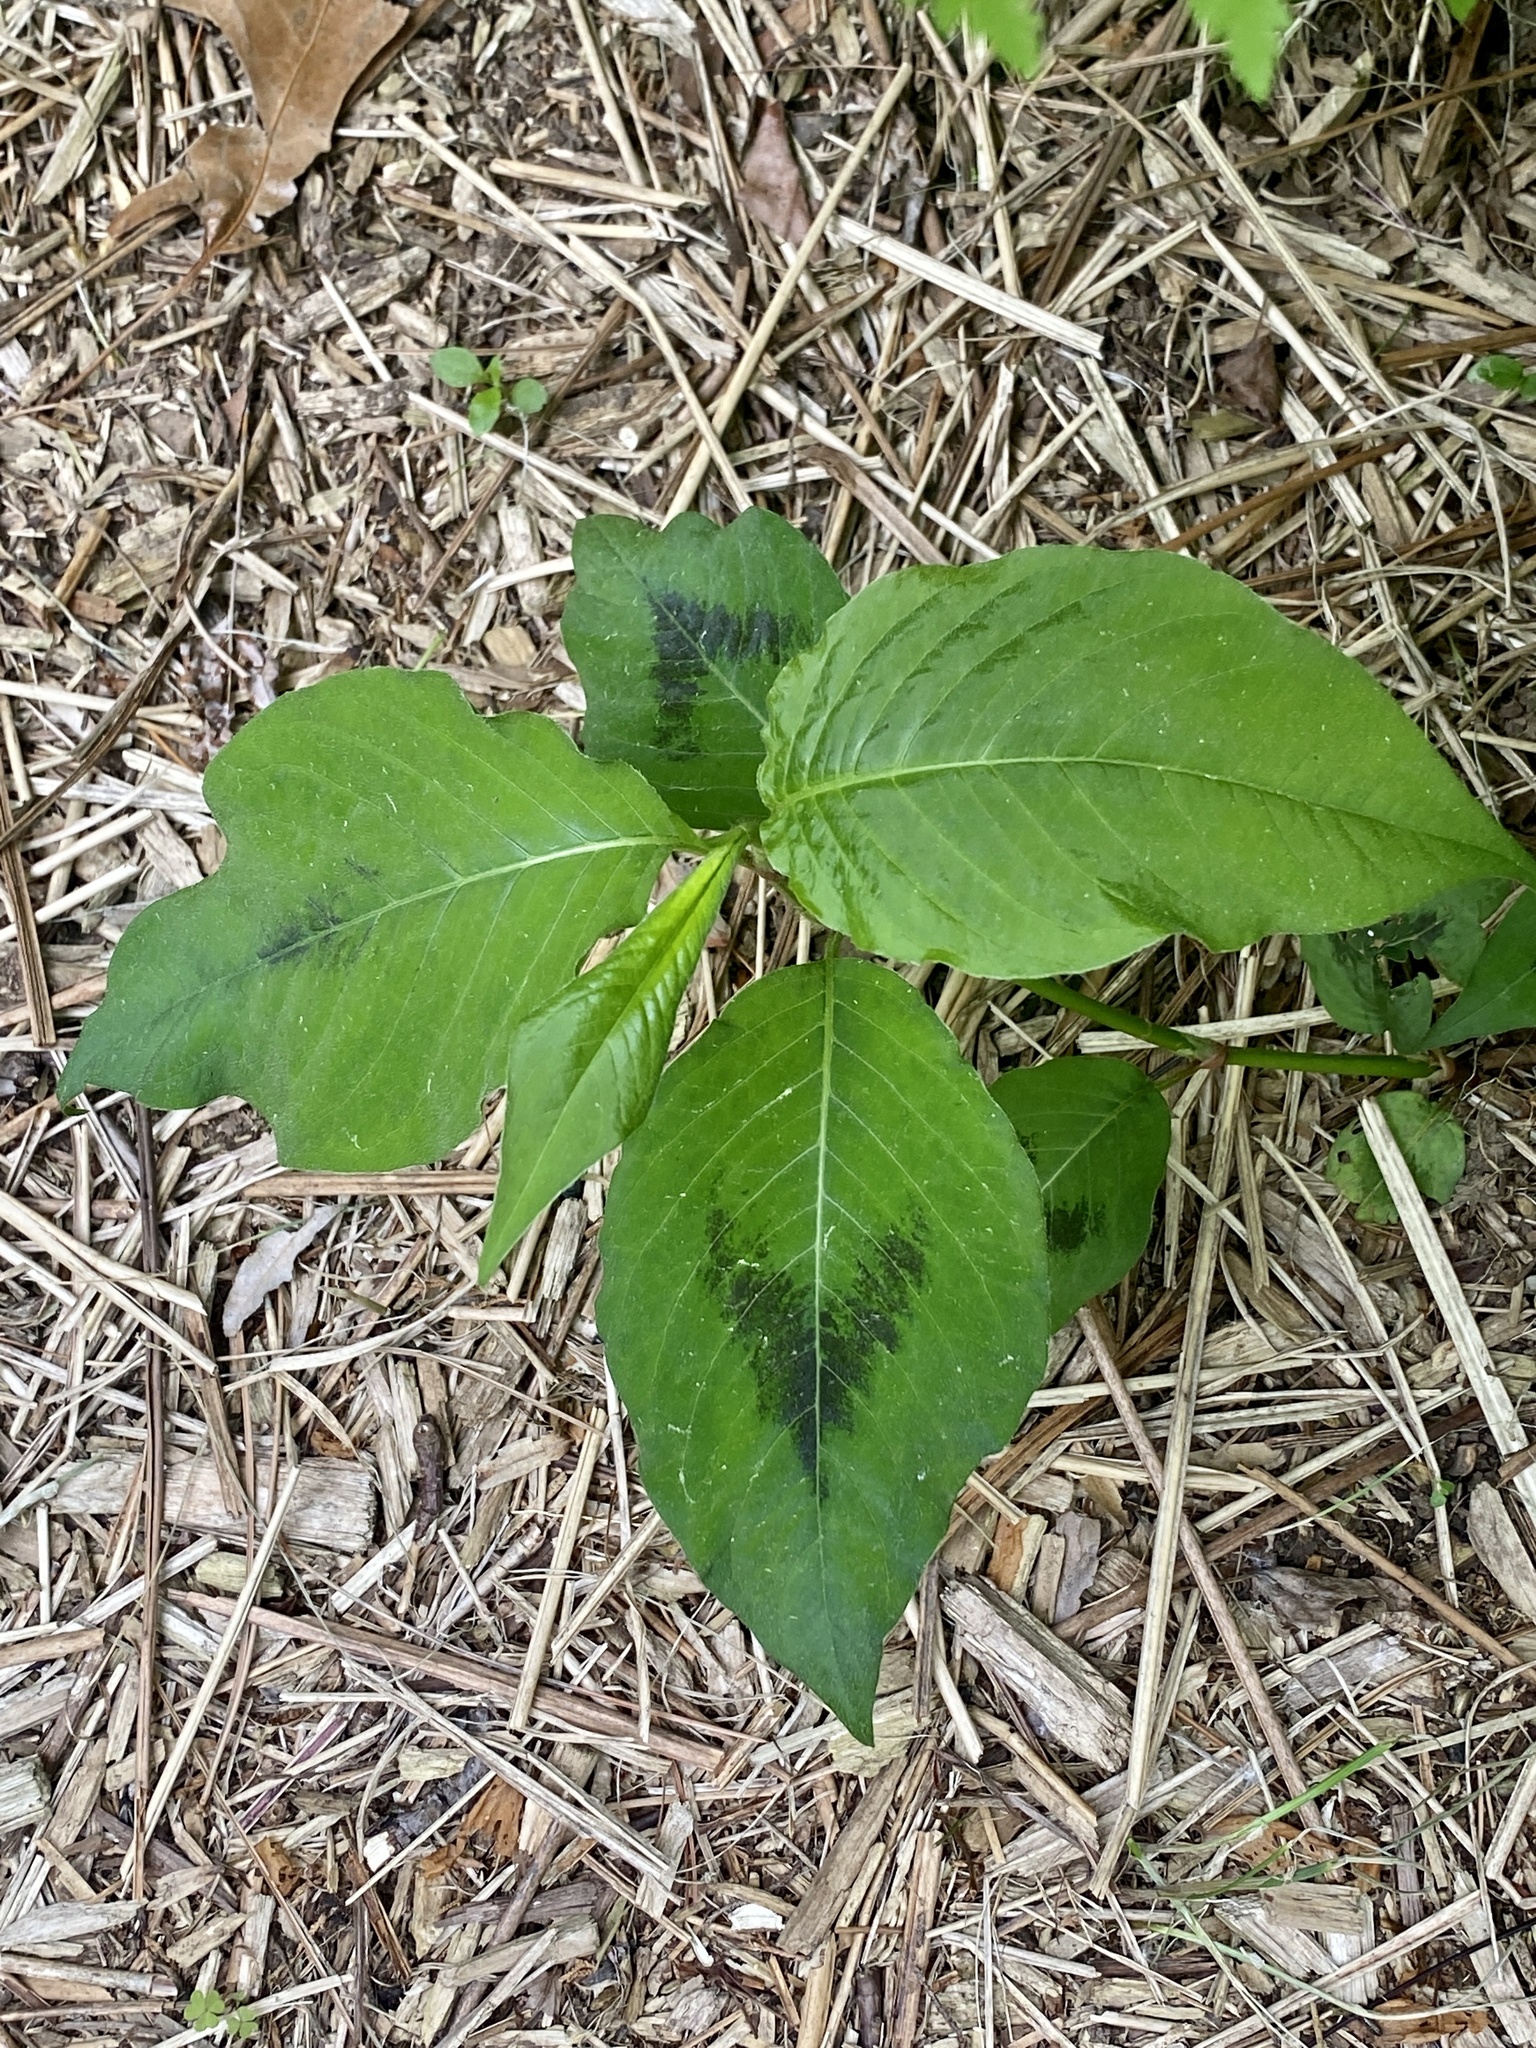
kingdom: Plantae
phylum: Tracheophyta
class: Magnoliopsida
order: Caryophyllales
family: Polygonaceae
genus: Persicaria
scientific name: Persicaria virginiana
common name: Jumpseed
